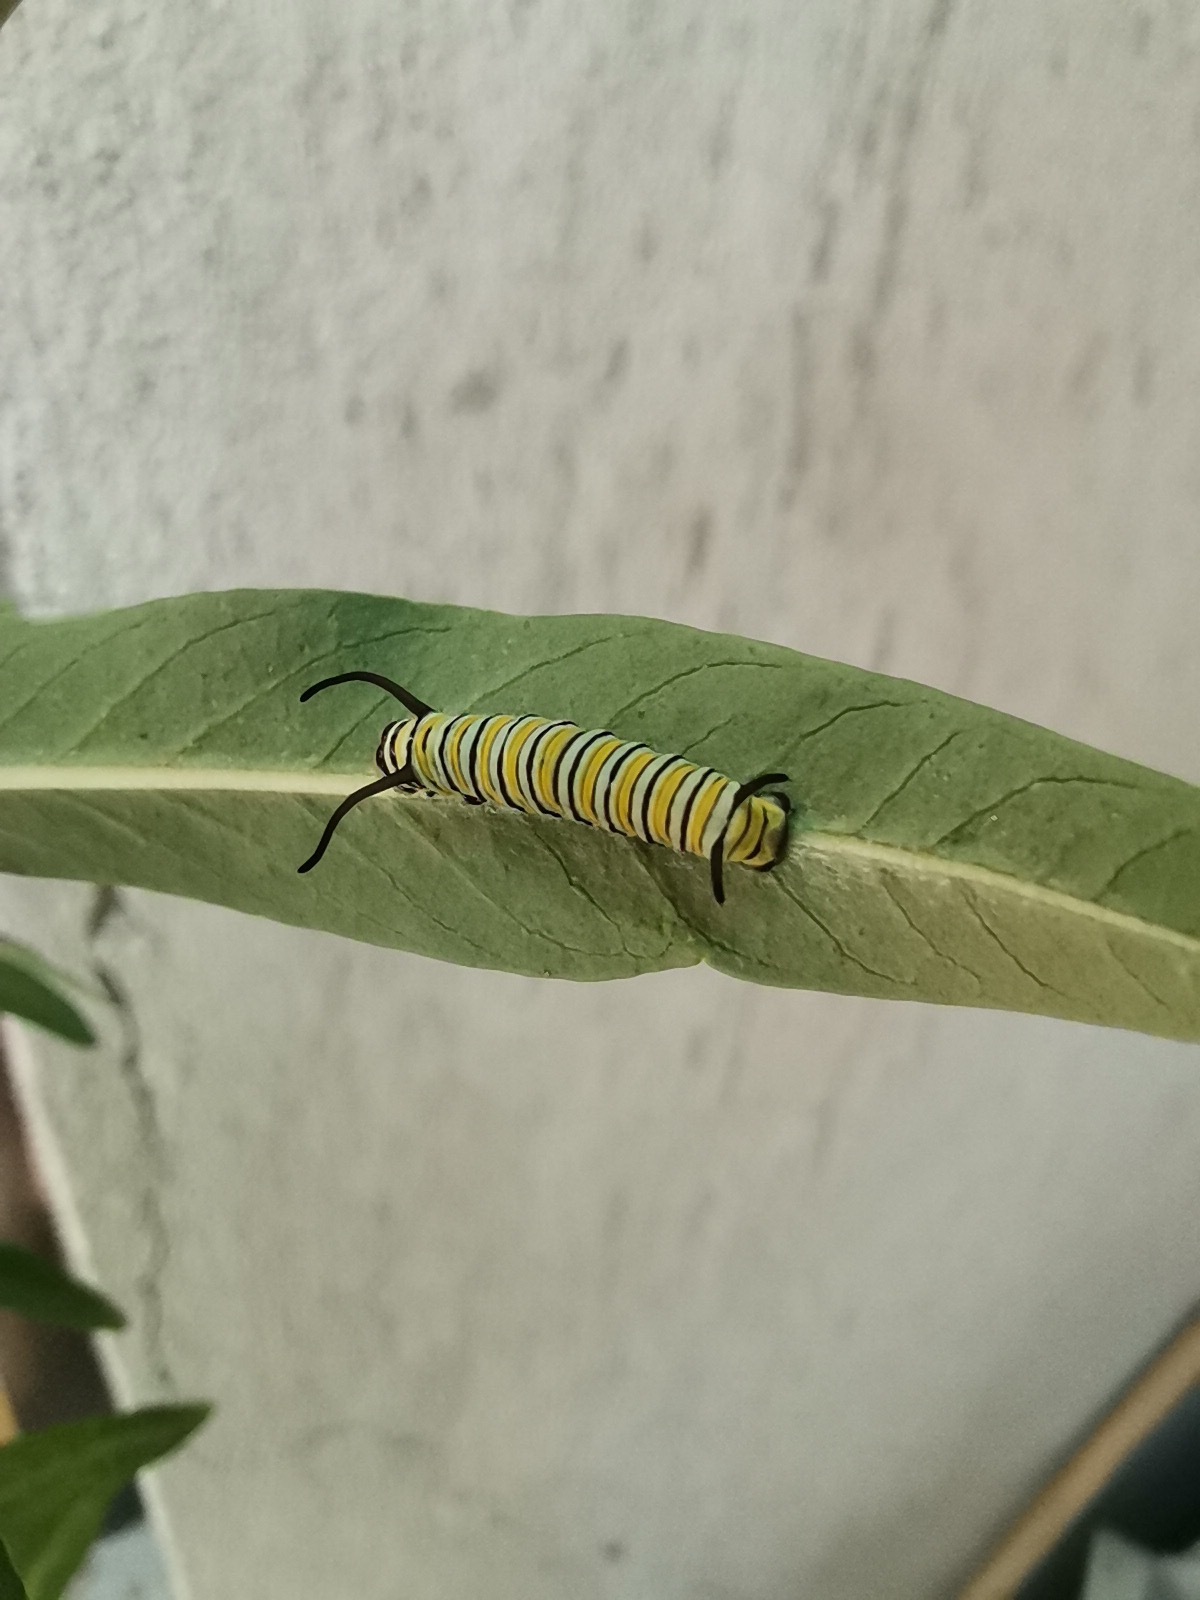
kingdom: Animalia
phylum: Arthropoda
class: Insecta
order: Lepidoptera
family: Nymphalidae
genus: Danaus
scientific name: Danaus plexippus
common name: Monarch
